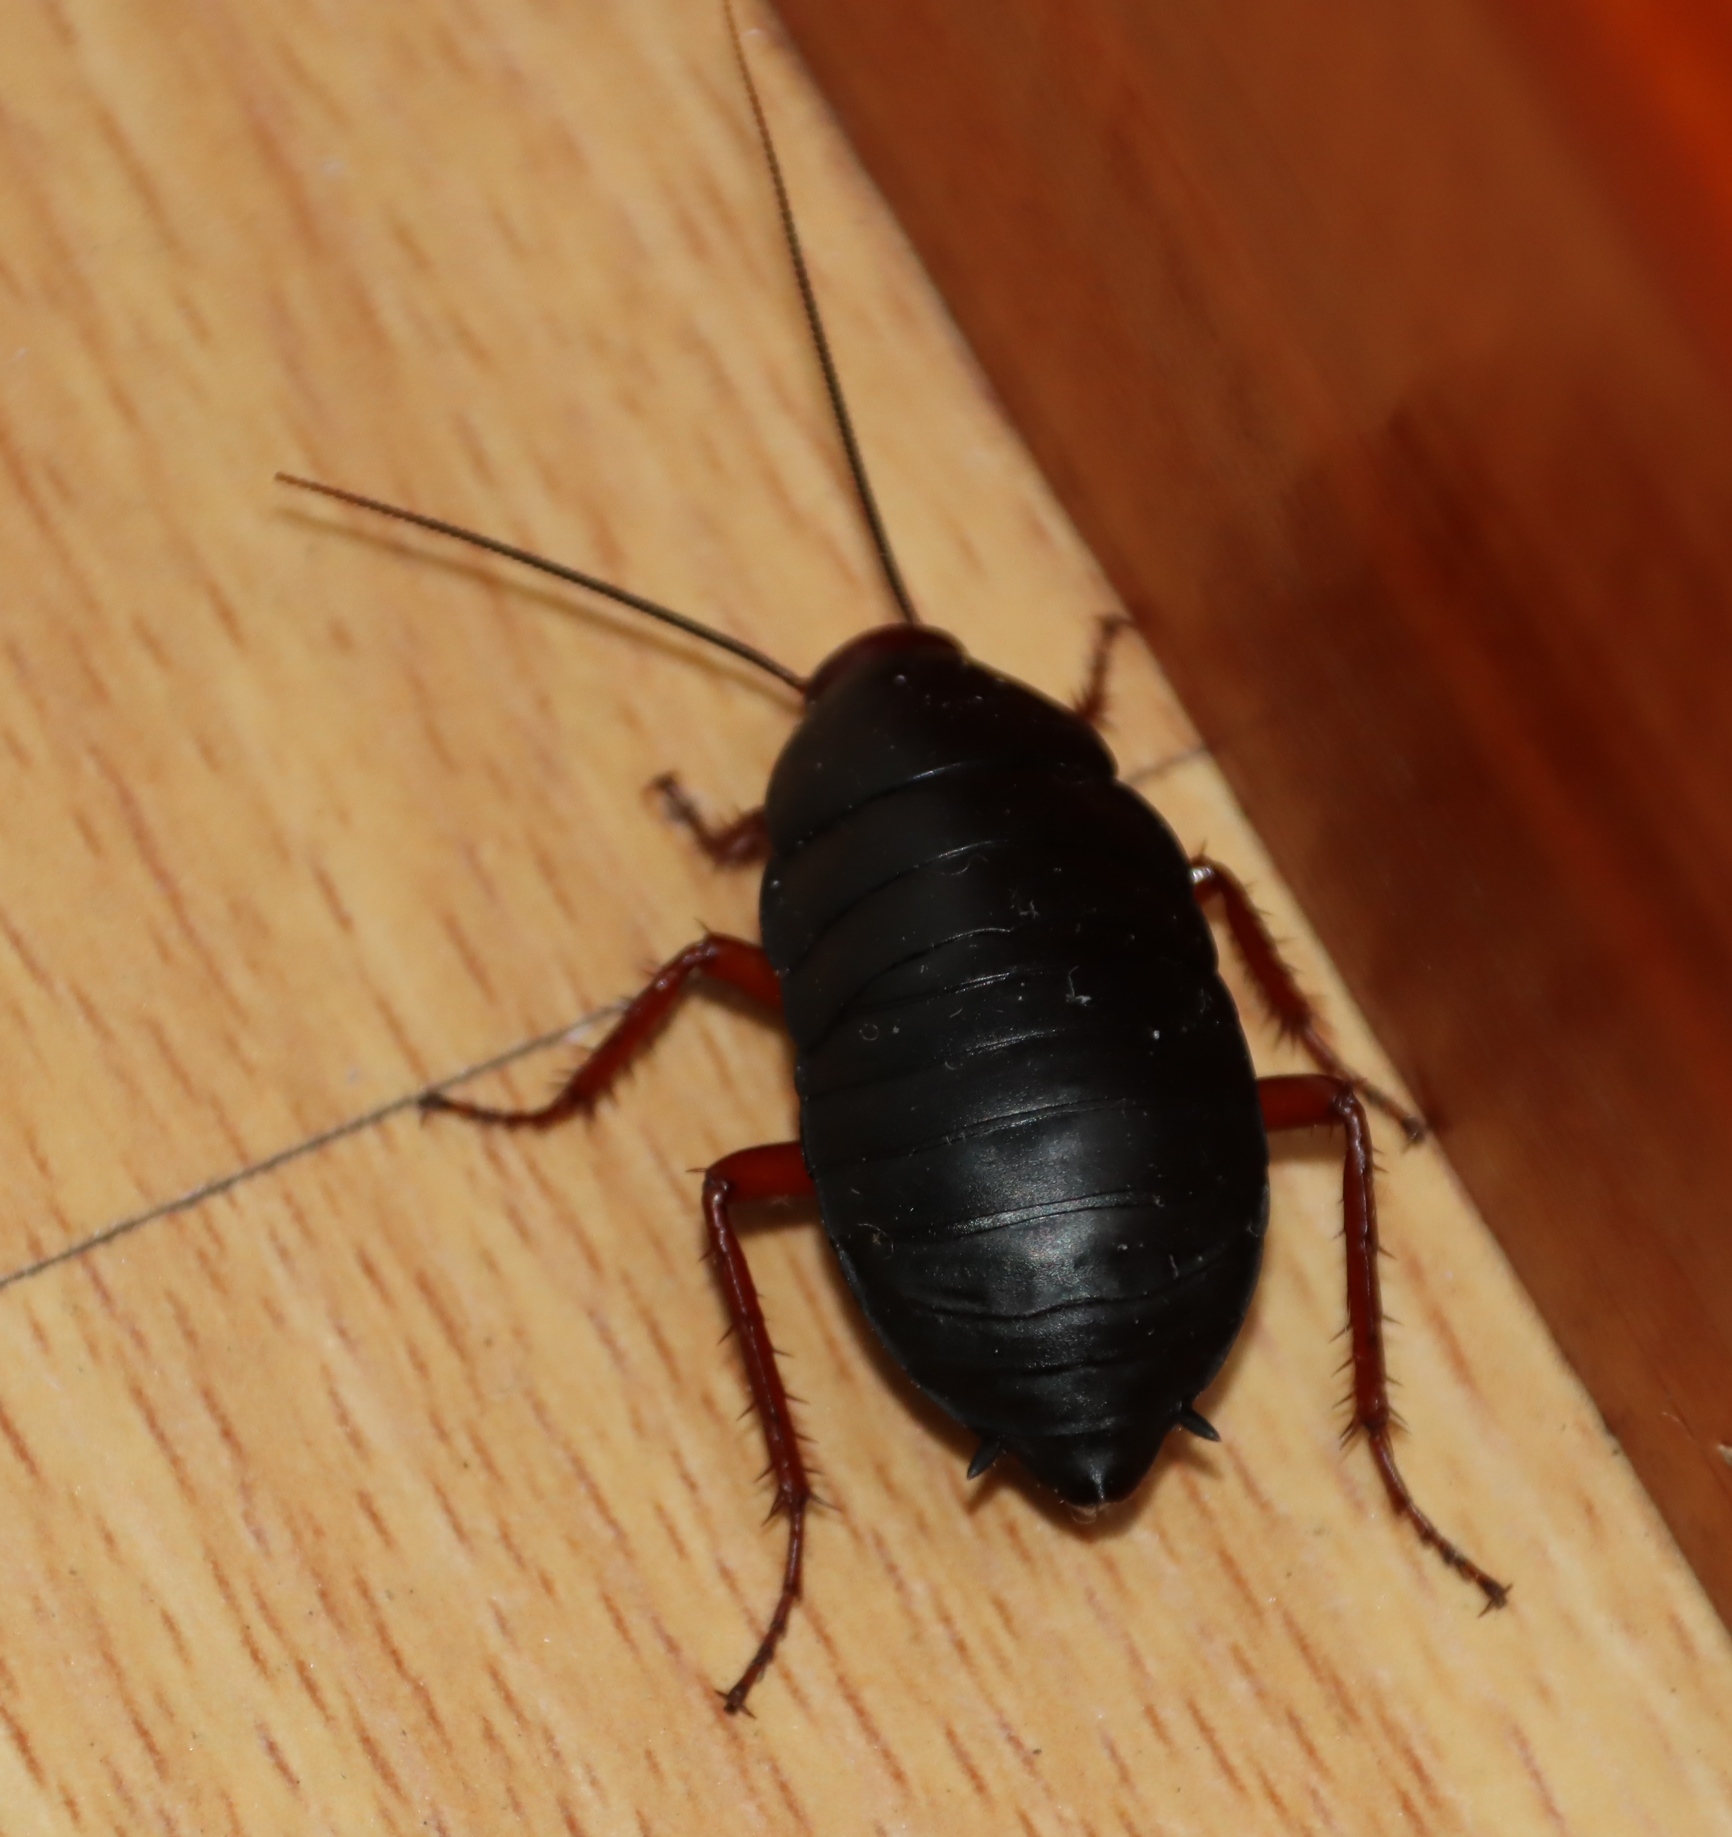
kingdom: Animalia
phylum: Arthropoda
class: Insecta
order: Blattodea
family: Blattidae
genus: Deropeltis
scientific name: Deropeltis erythrocephala
